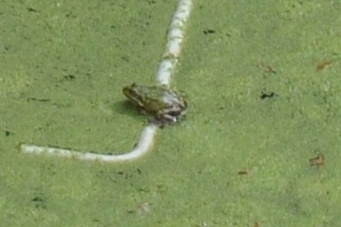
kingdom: Animalia
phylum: Chordata
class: Amphibia
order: Anura
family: Ranidae
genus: Pelophylax
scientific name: Pelophylax
